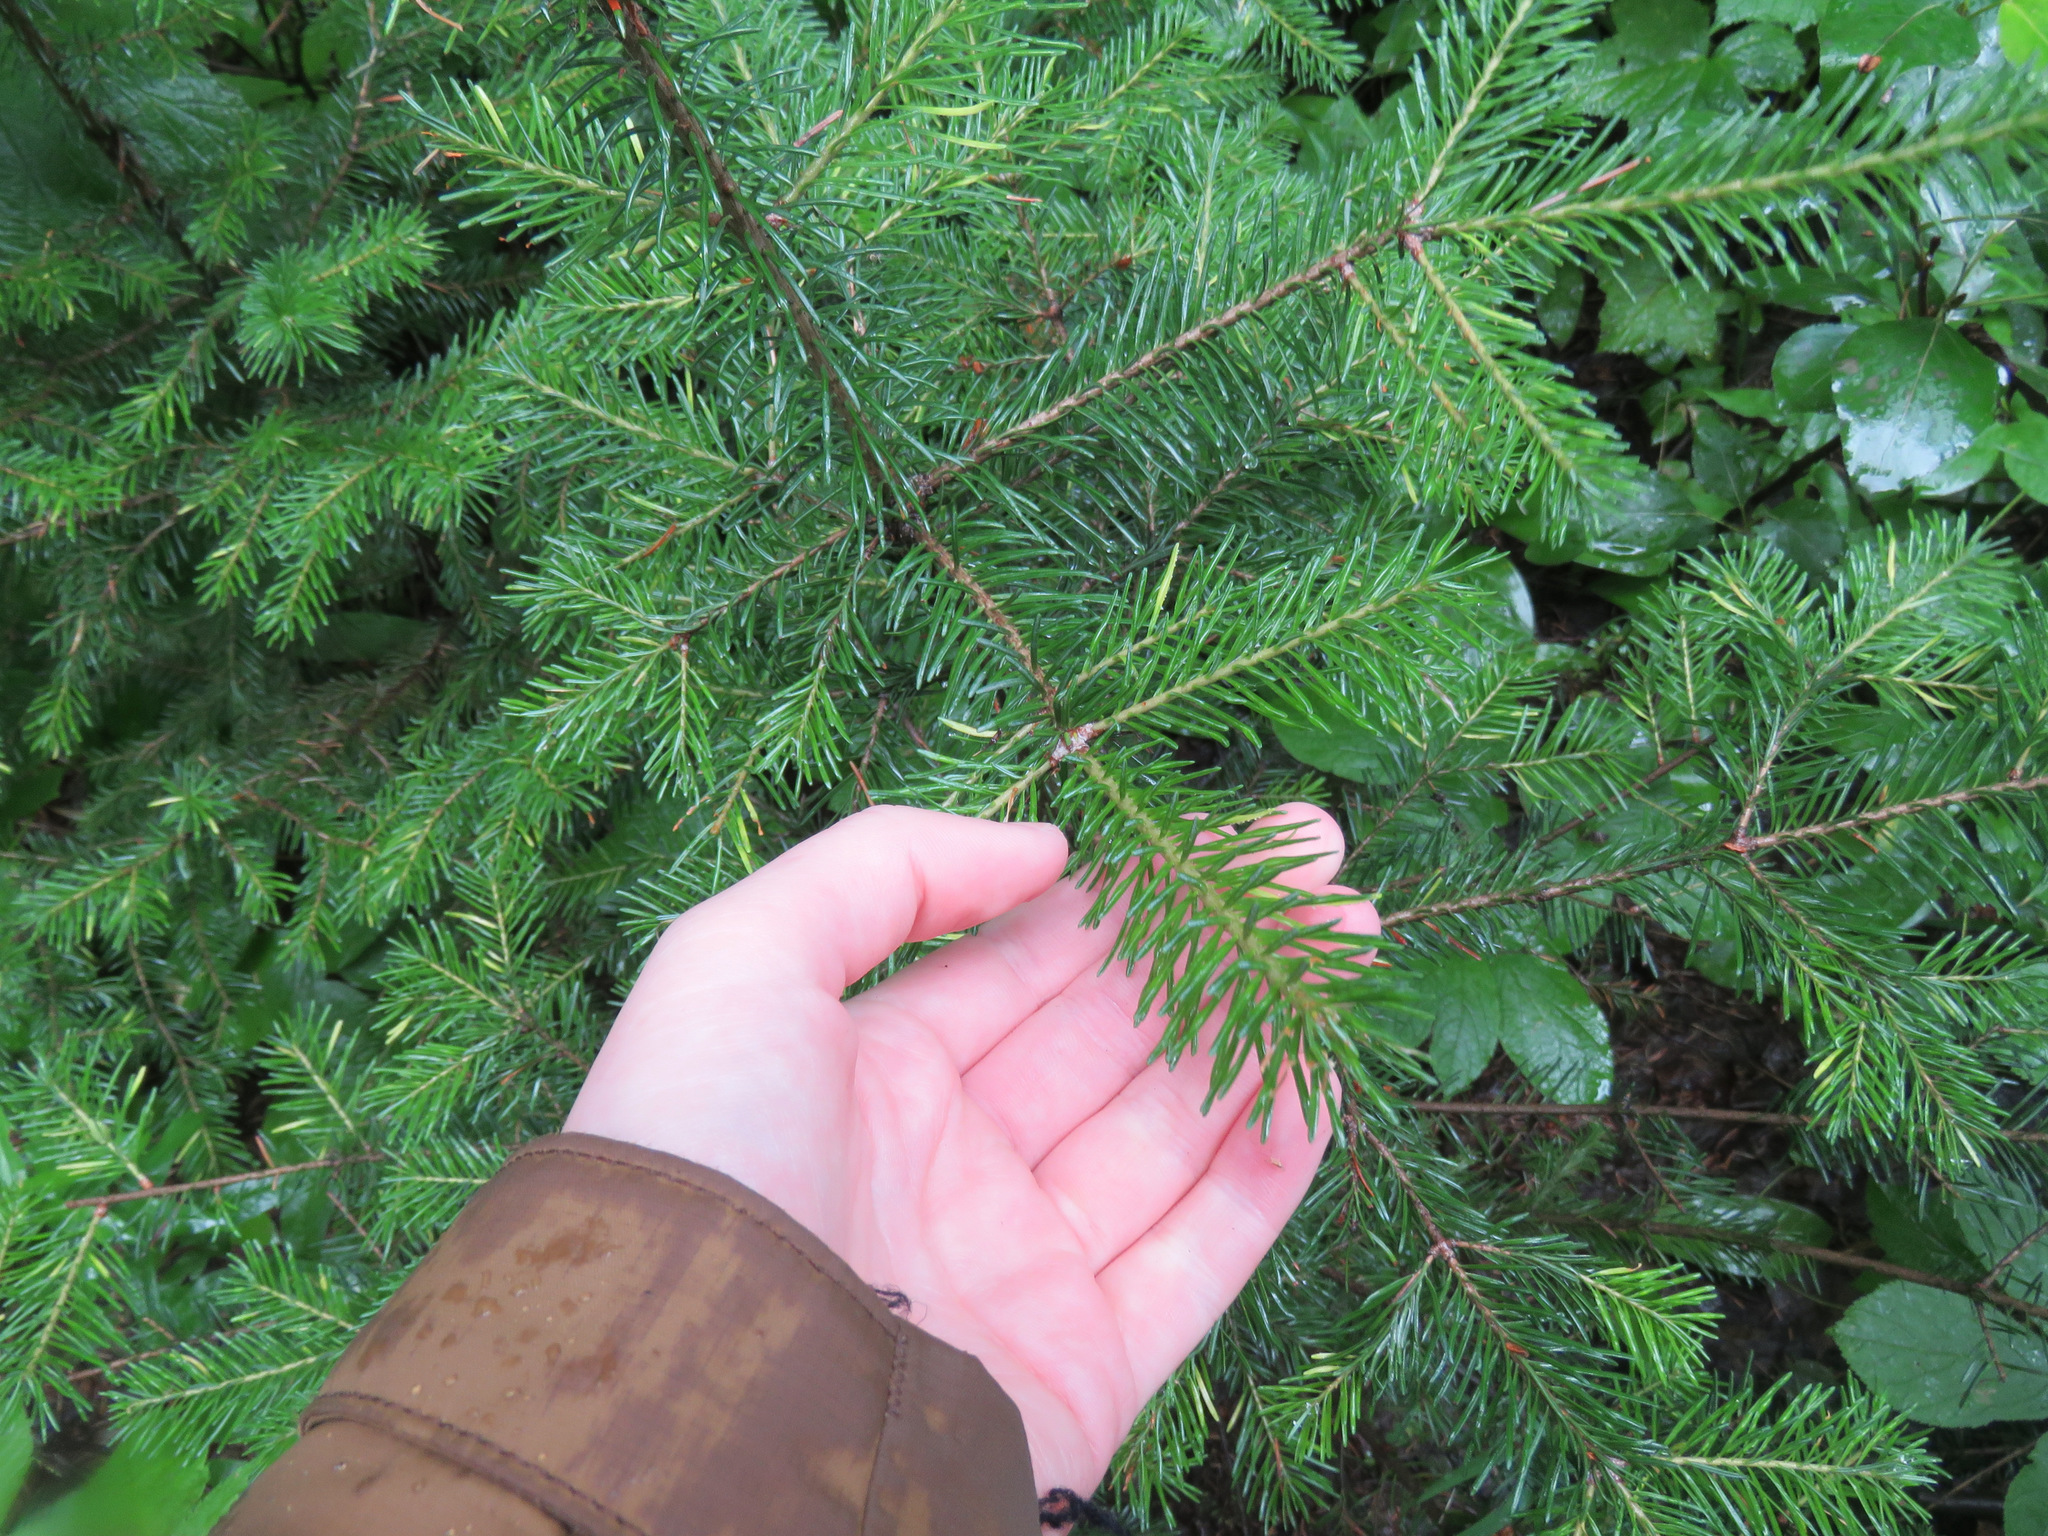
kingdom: Plantae
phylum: Tracheophyta
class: Pinopsida
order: Pinales
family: Pinaceae
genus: Abies
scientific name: Abies lasiocarpa
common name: Subalpine fir
